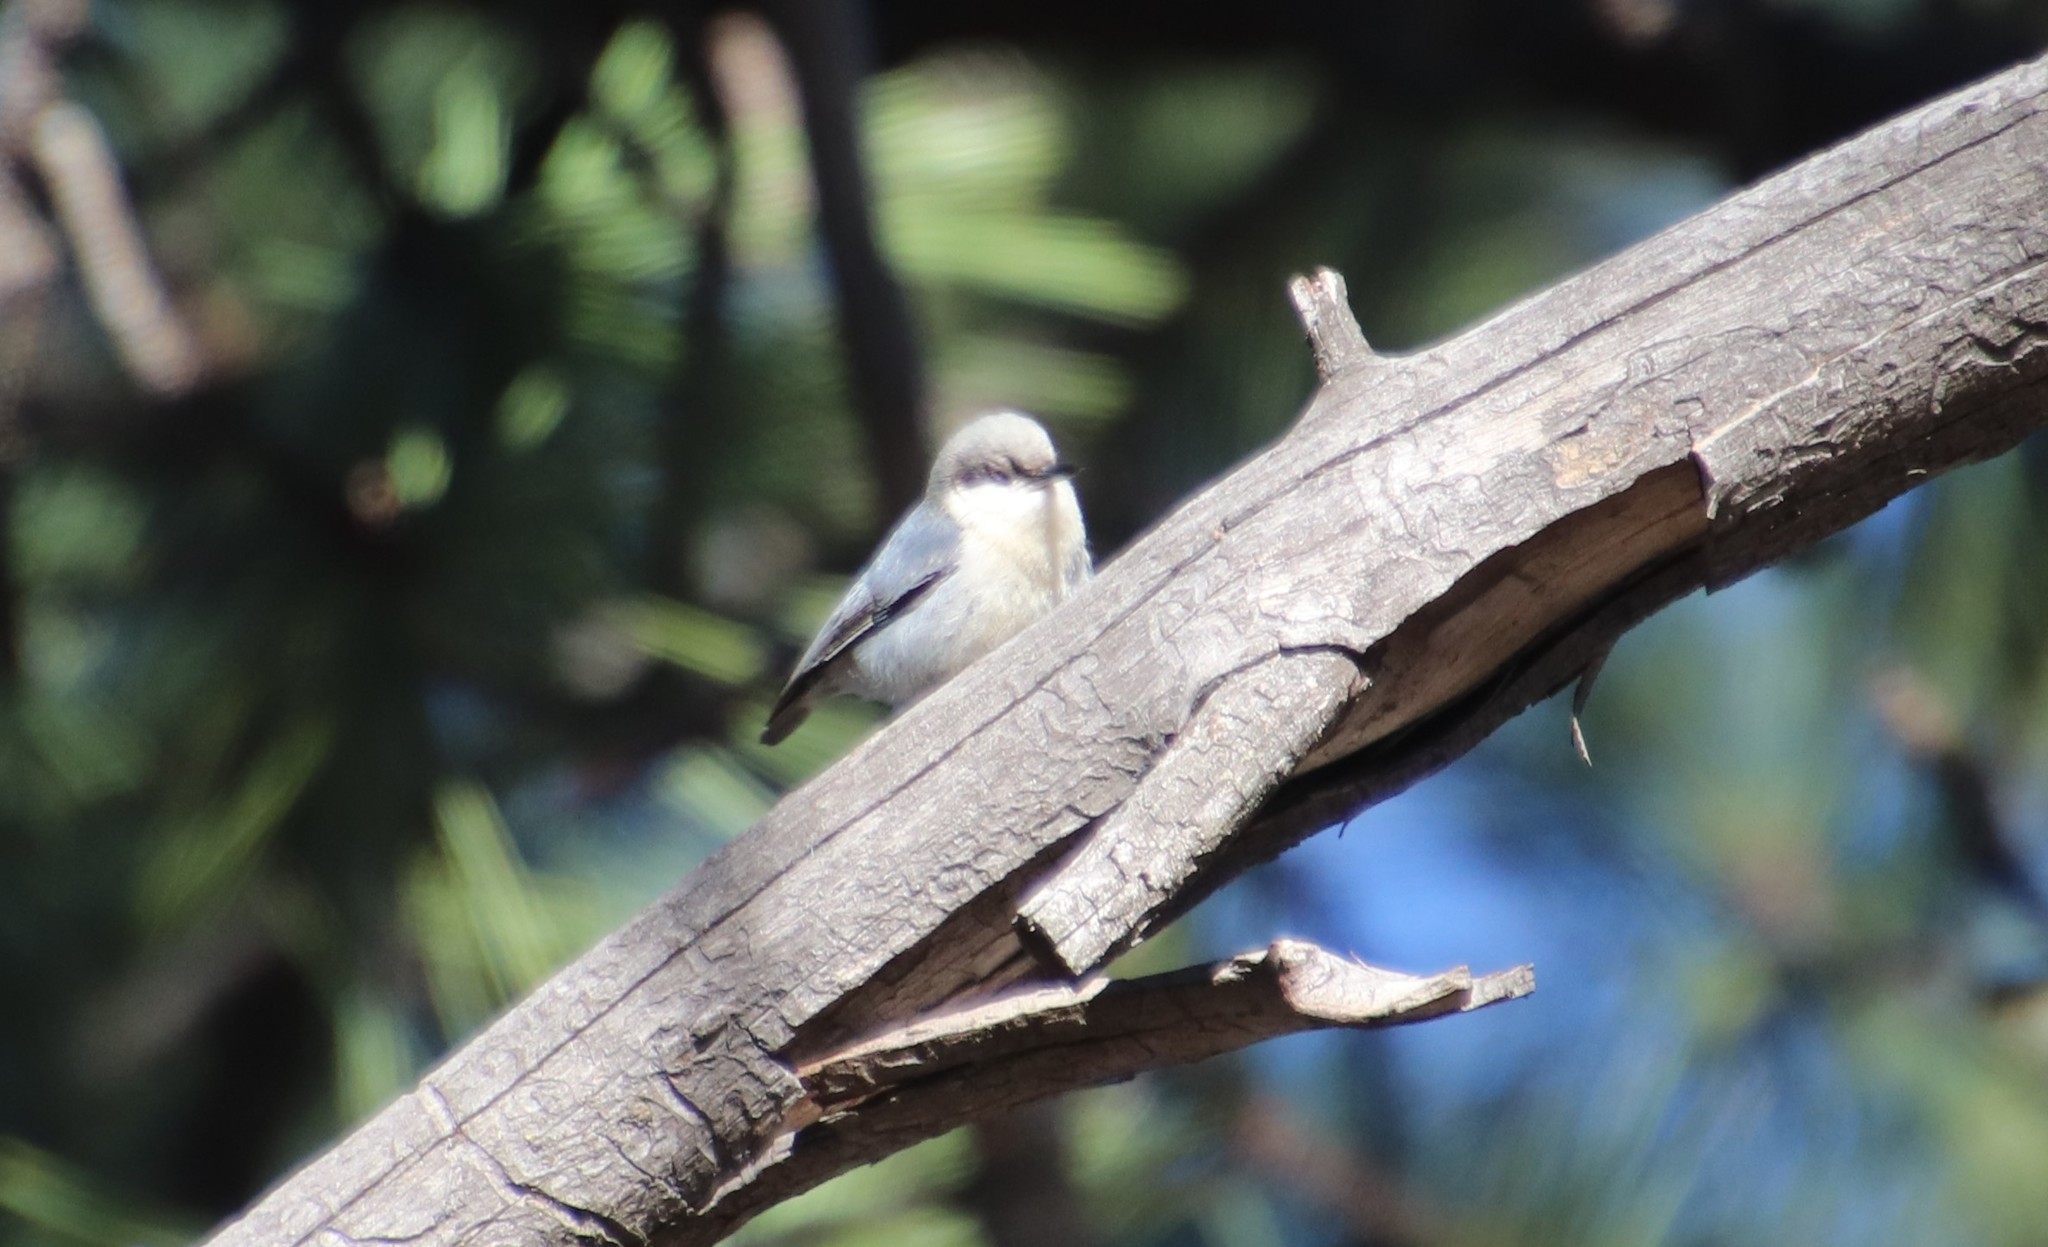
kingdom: Animalia
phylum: Chordata
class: Aves
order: Passeriformes
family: Sittidae
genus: Sitta
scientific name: Sitta pygmaea
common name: Pygmy nuthatch
